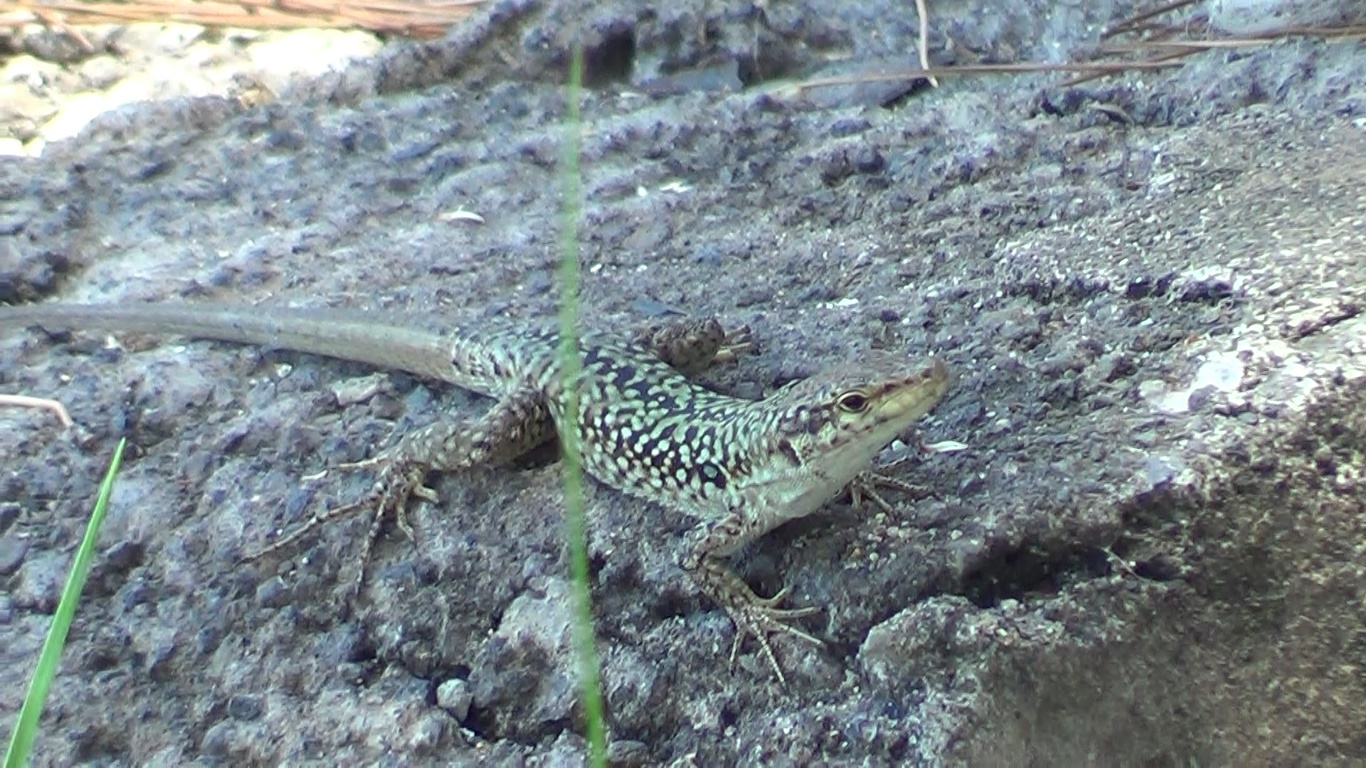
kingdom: Animalia
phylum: Chordata
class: Squamata
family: Lacertidae
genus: Podarcis
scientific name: Podarcis siculus
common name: Italian wall lizard
